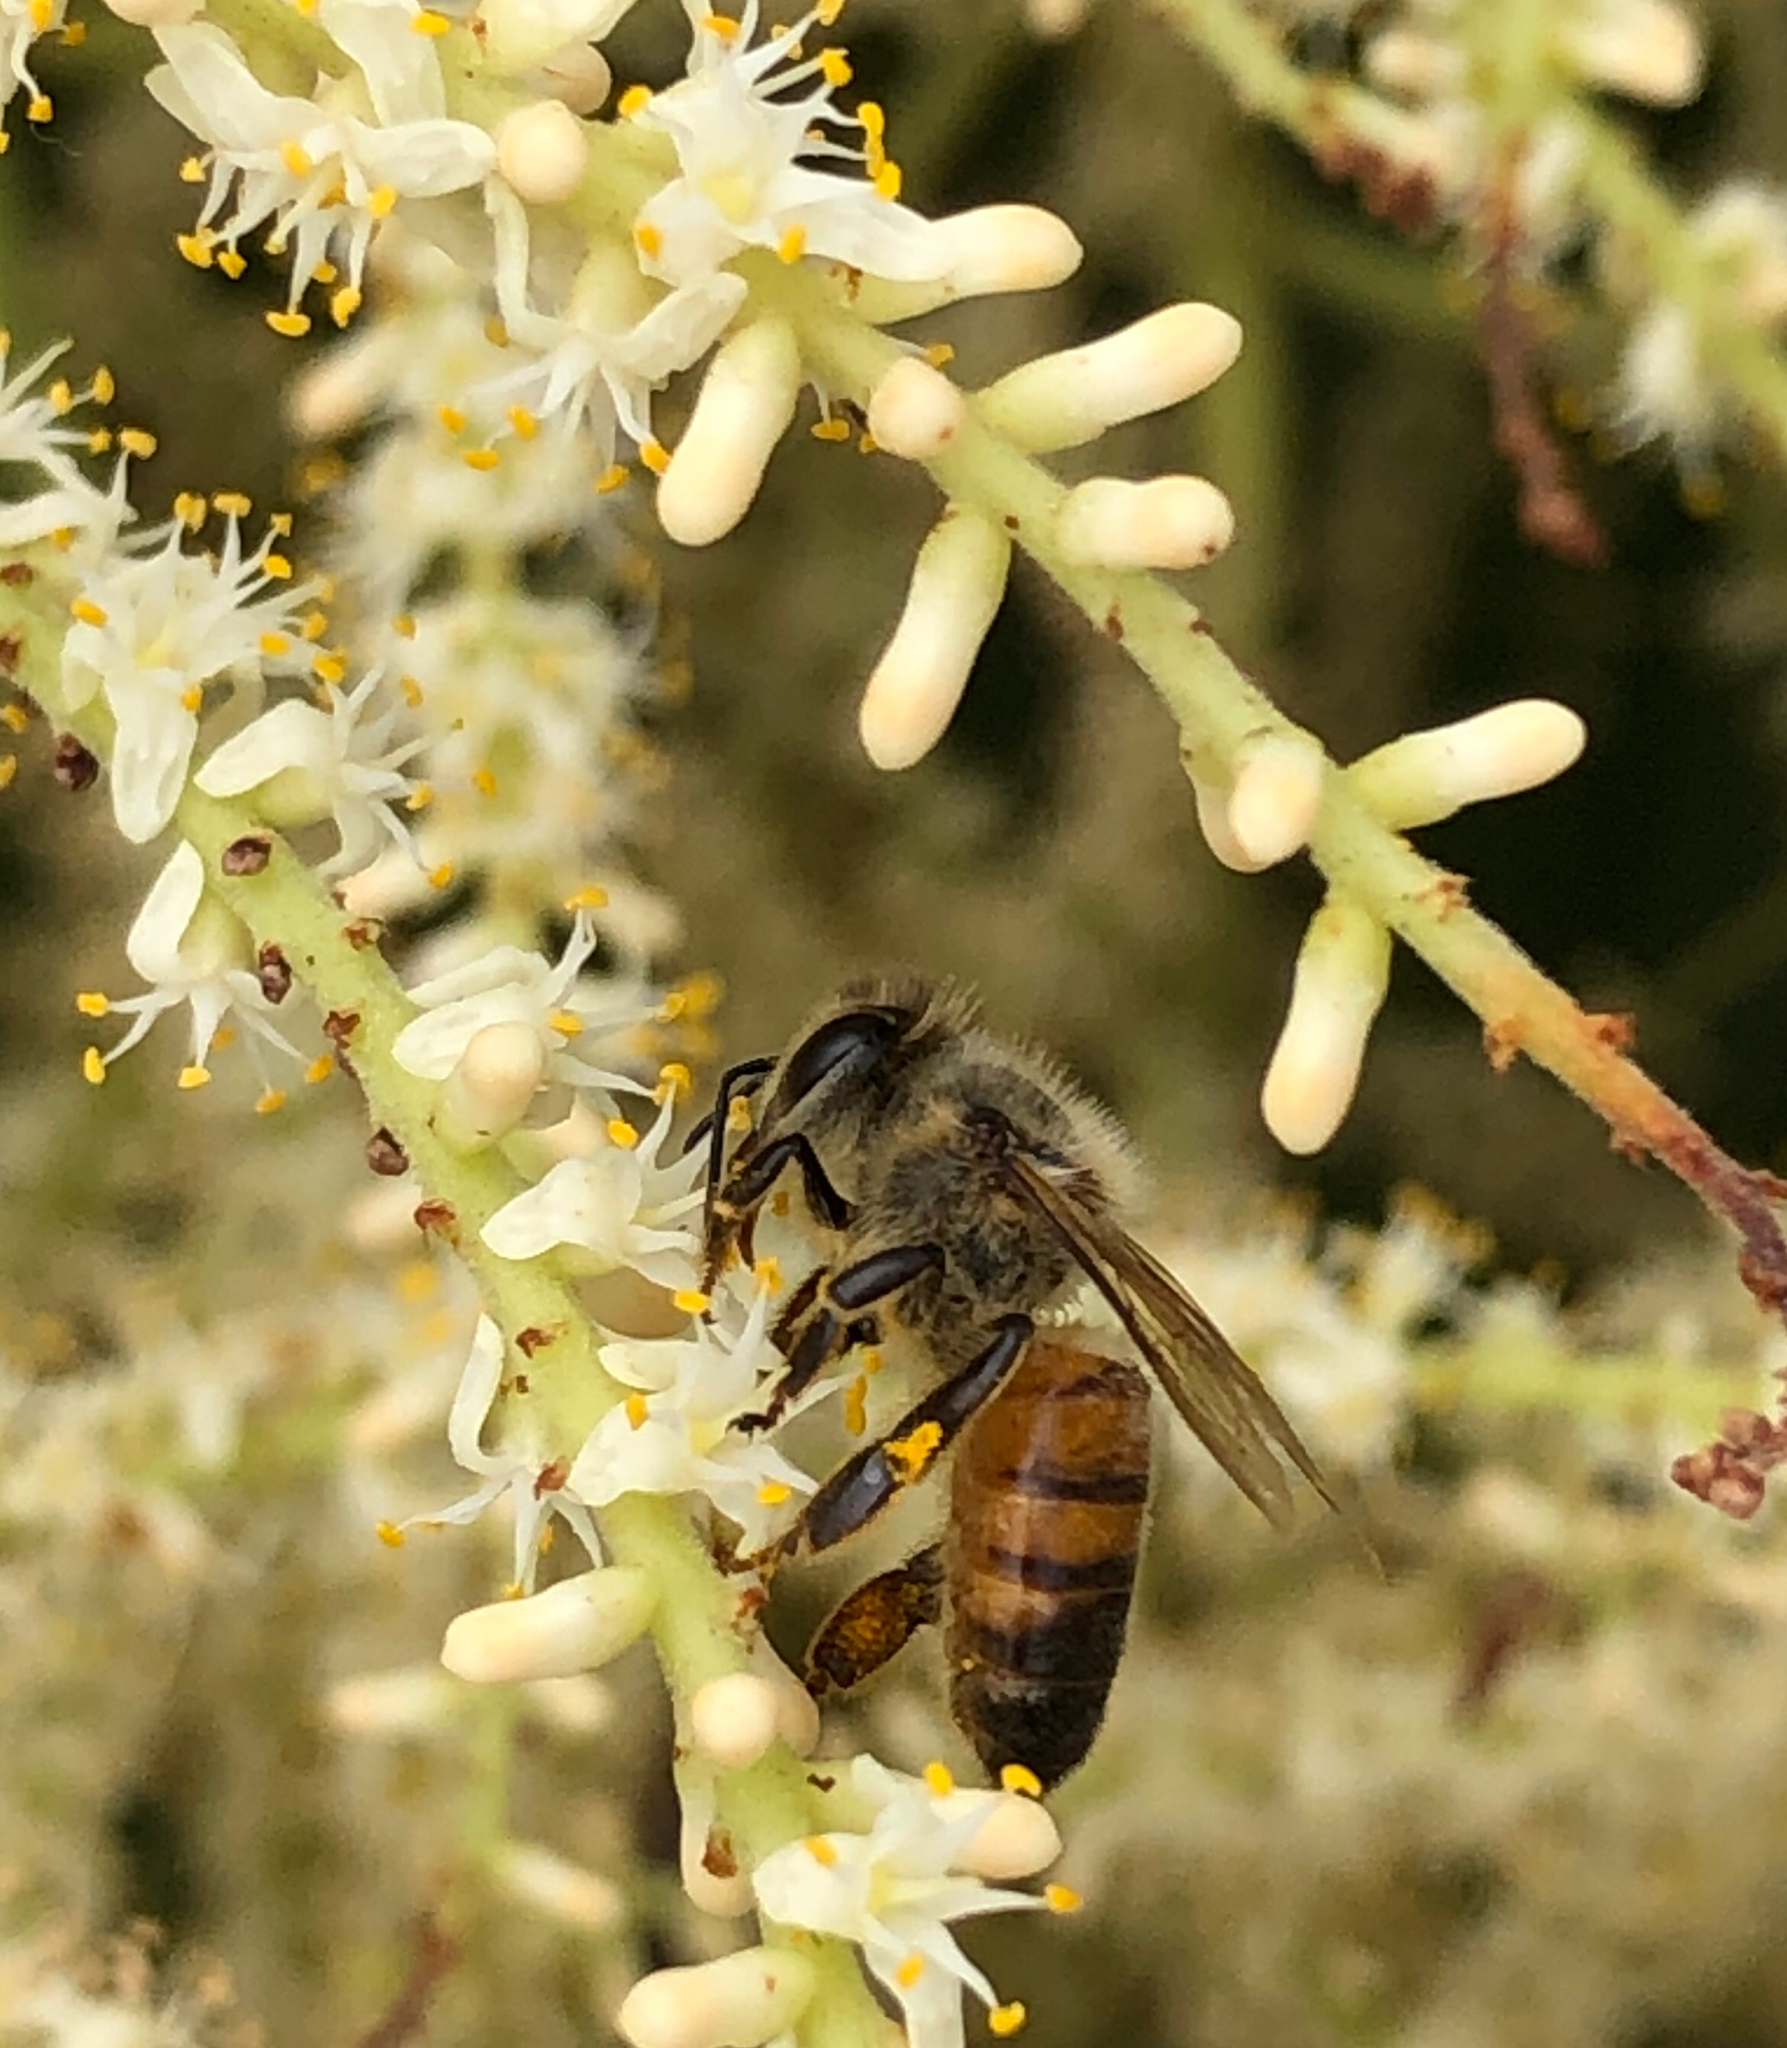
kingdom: Animalia
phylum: Arthropoda
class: Insecta
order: Hymenoptera
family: Apidae
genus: Apis
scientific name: Apis mellifera
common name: Honey bee
